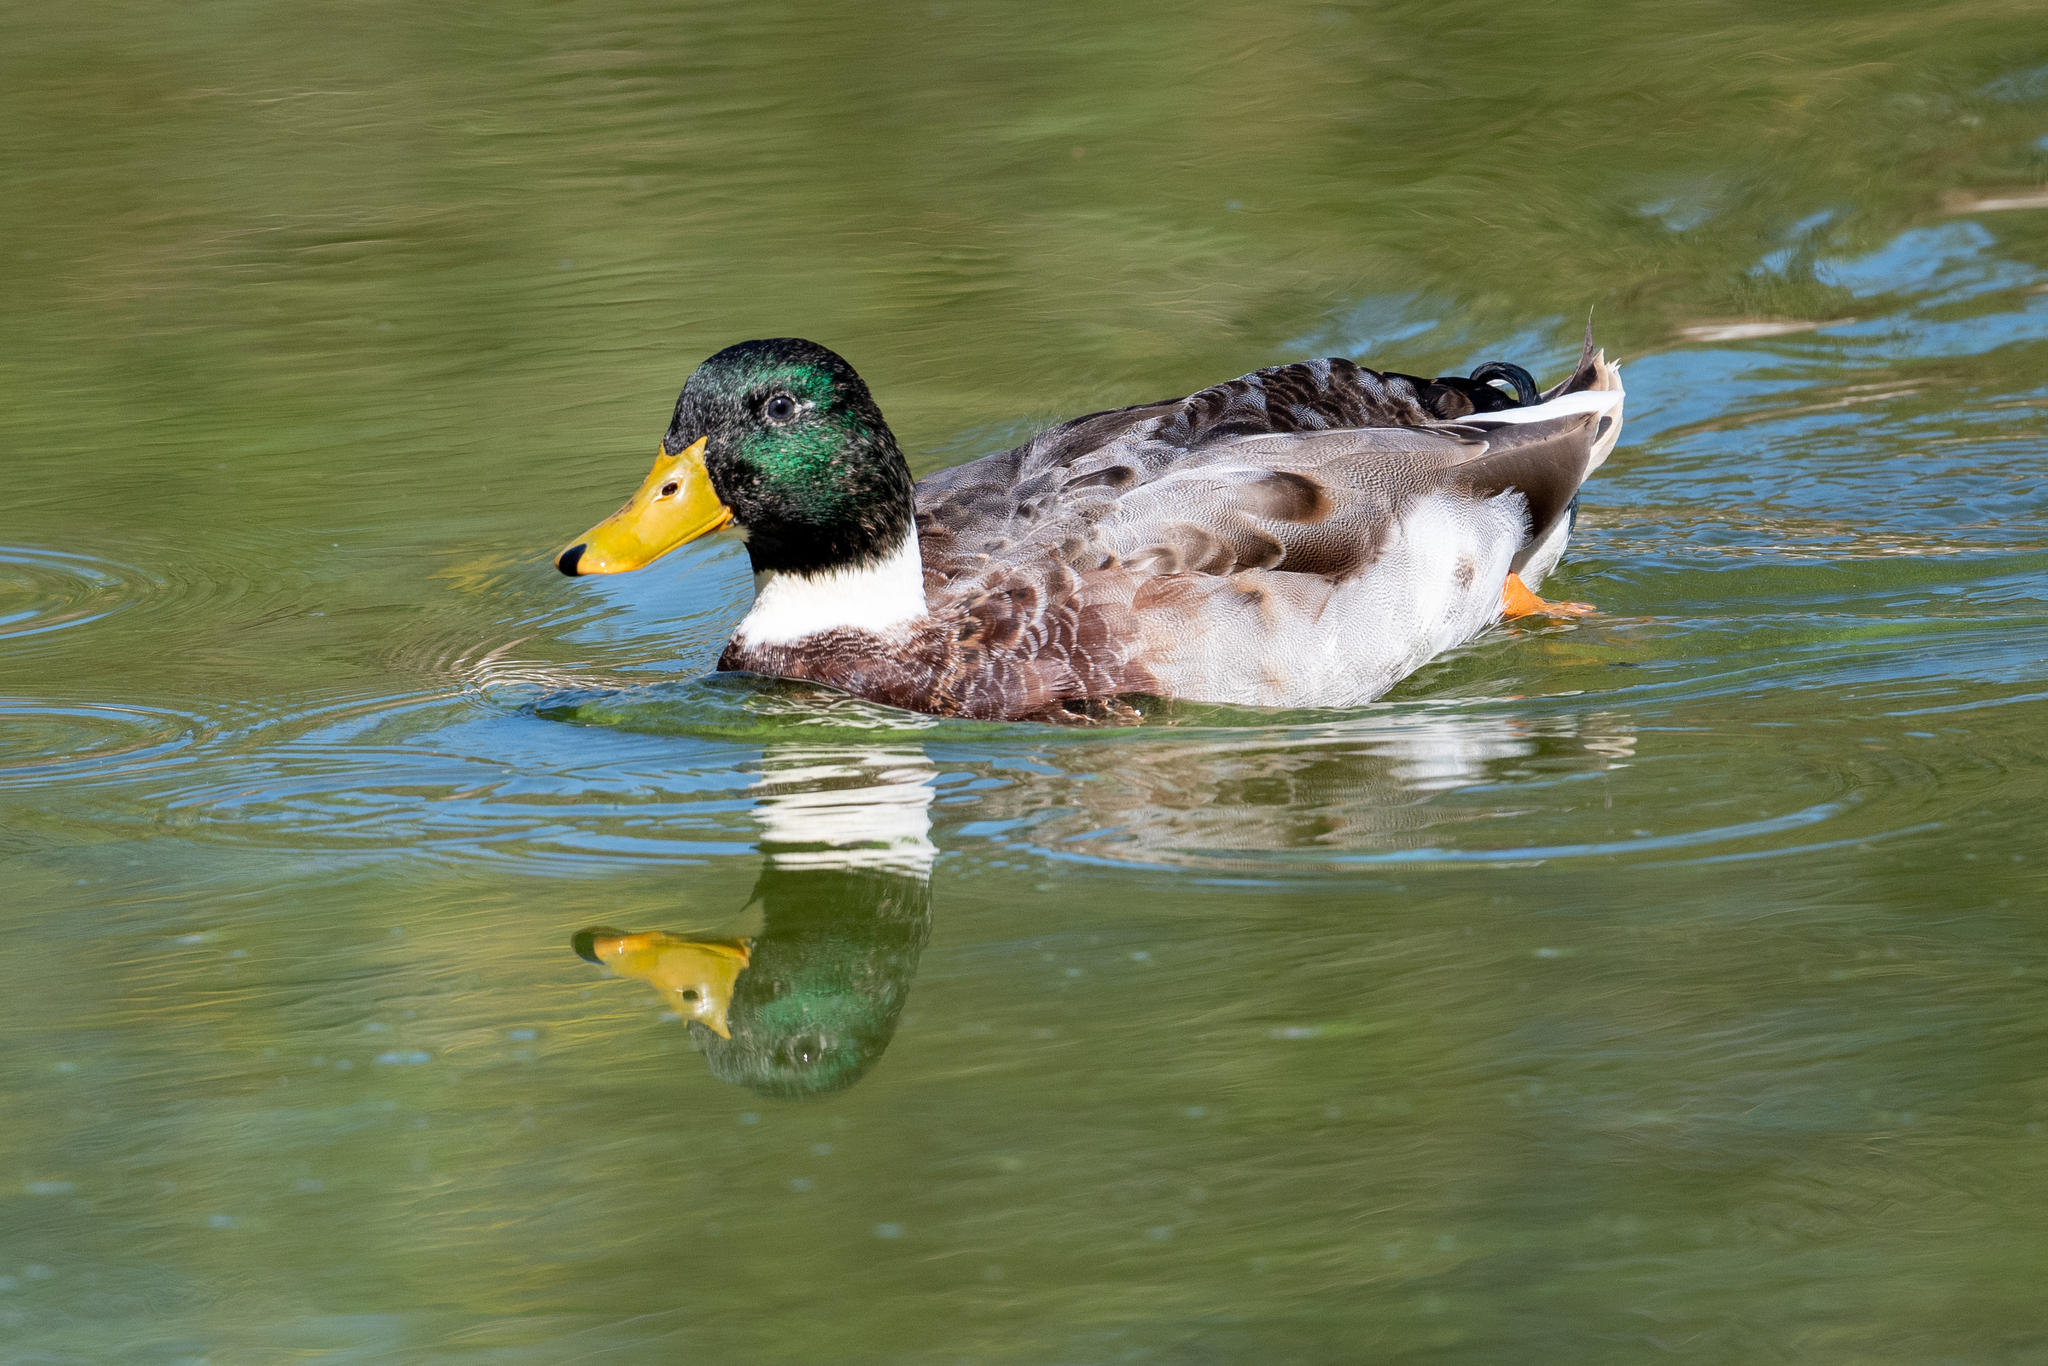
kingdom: Animalia
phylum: Chordata
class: Aves
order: Anseriformes
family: Anatidae
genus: Anas
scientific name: Anas platyrhynchos
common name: Mallard
